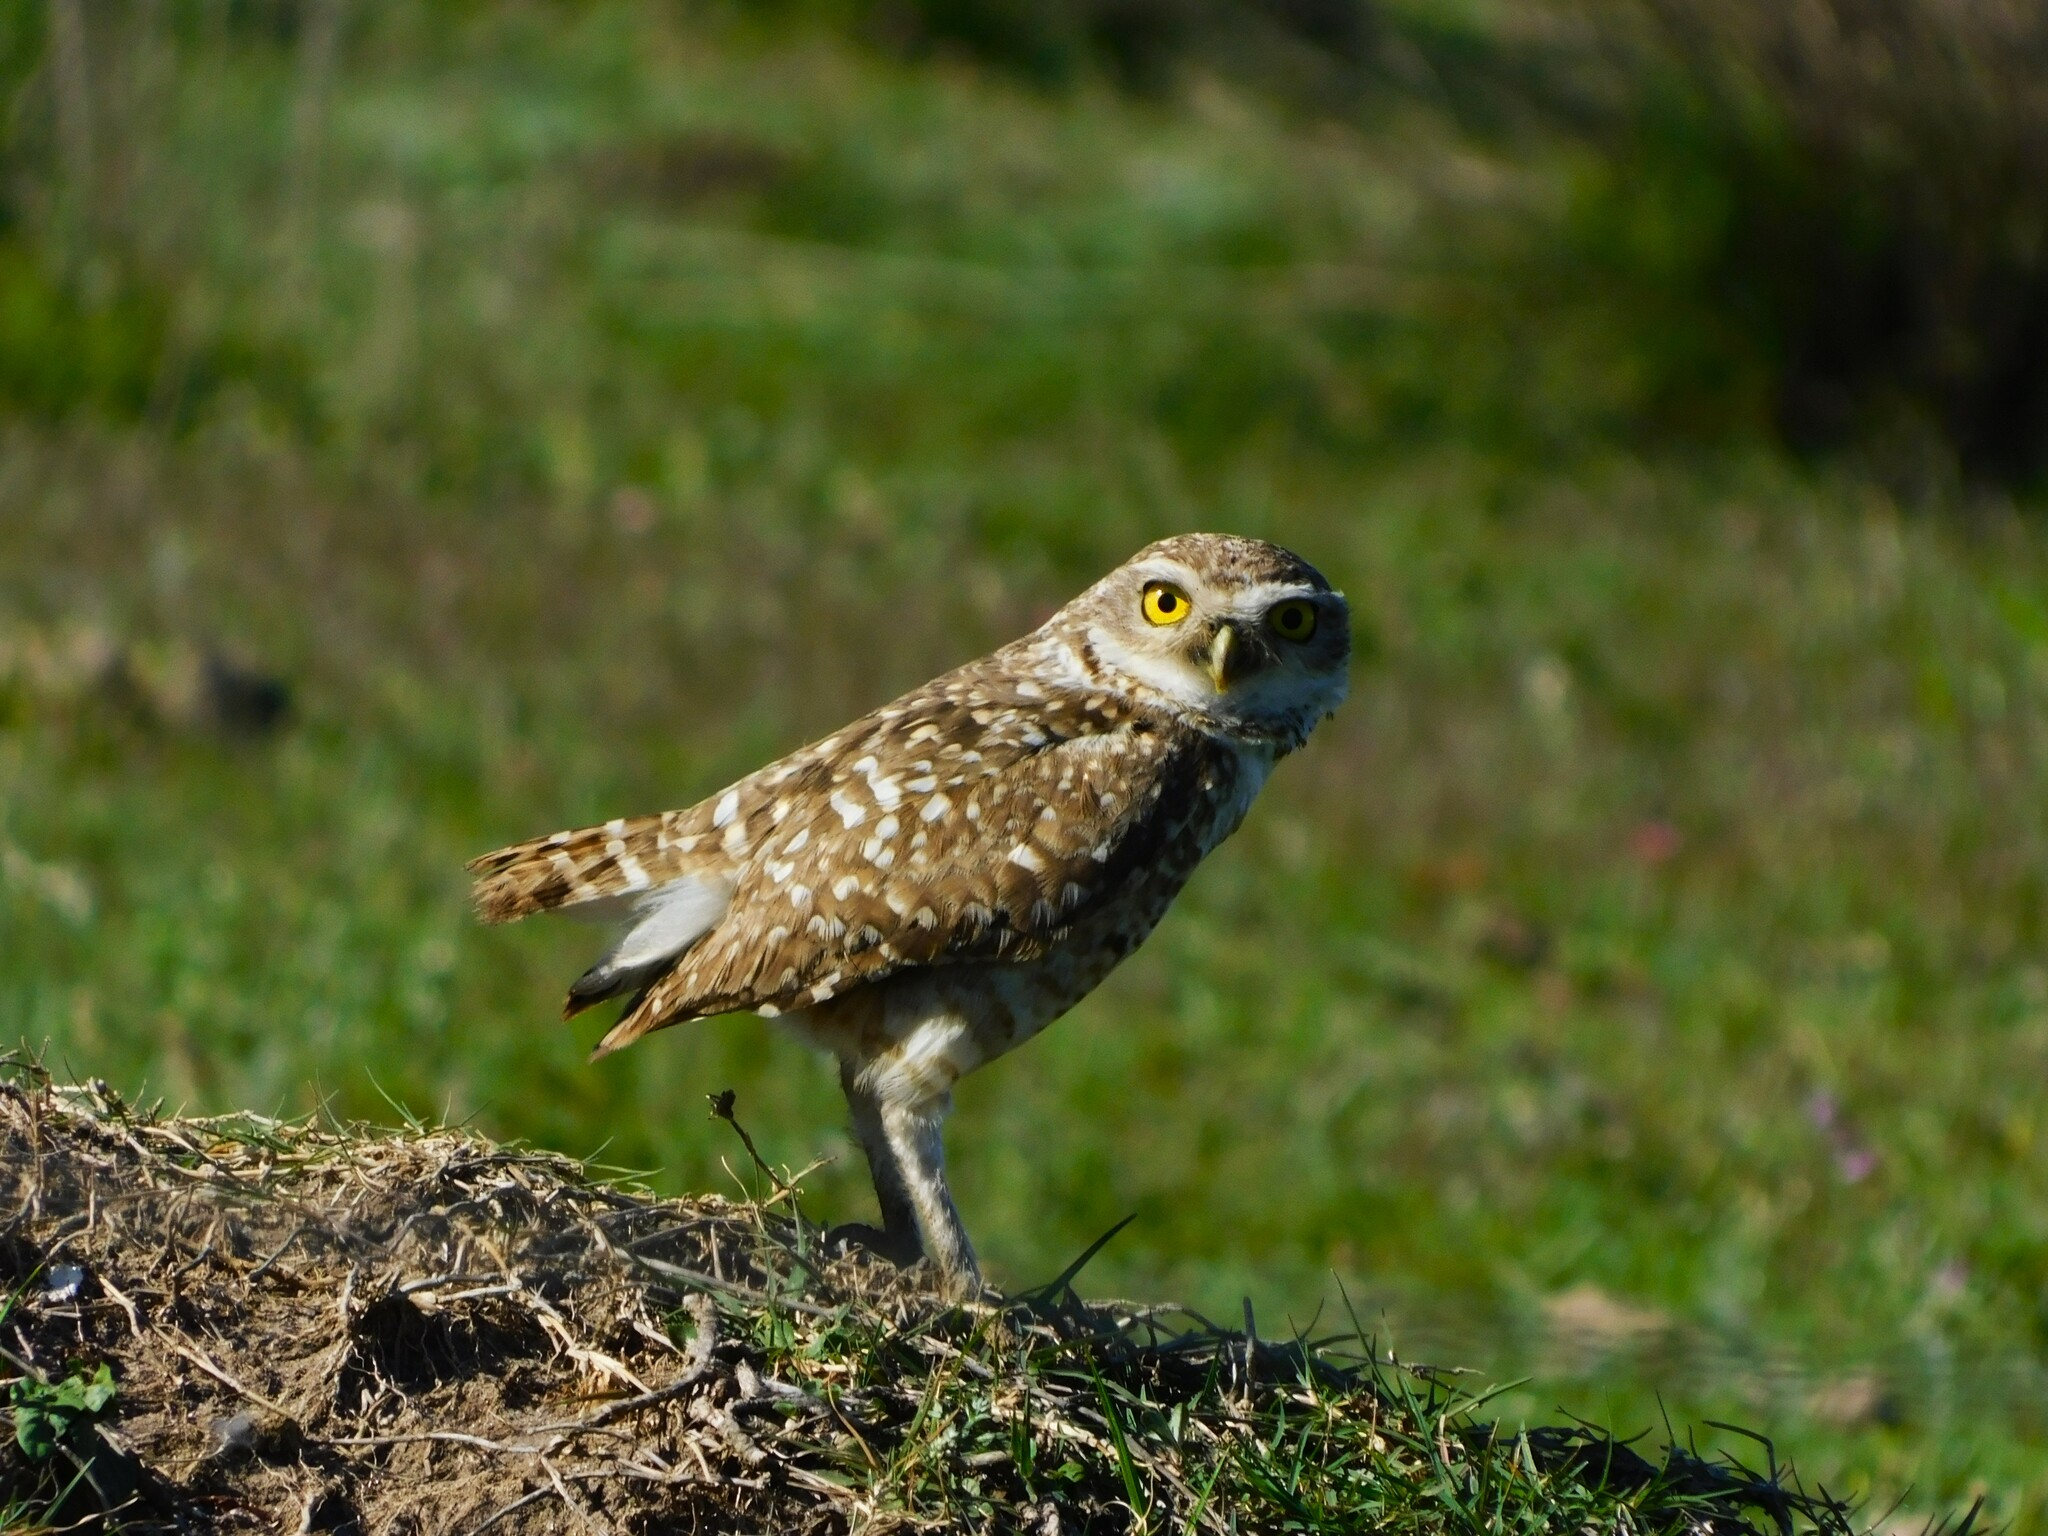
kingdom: Animalia
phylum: Chordata
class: Aves
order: Strigiformes
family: Strigidae
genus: Athene
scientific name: Athene cunicularia
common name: Burrowing owl
